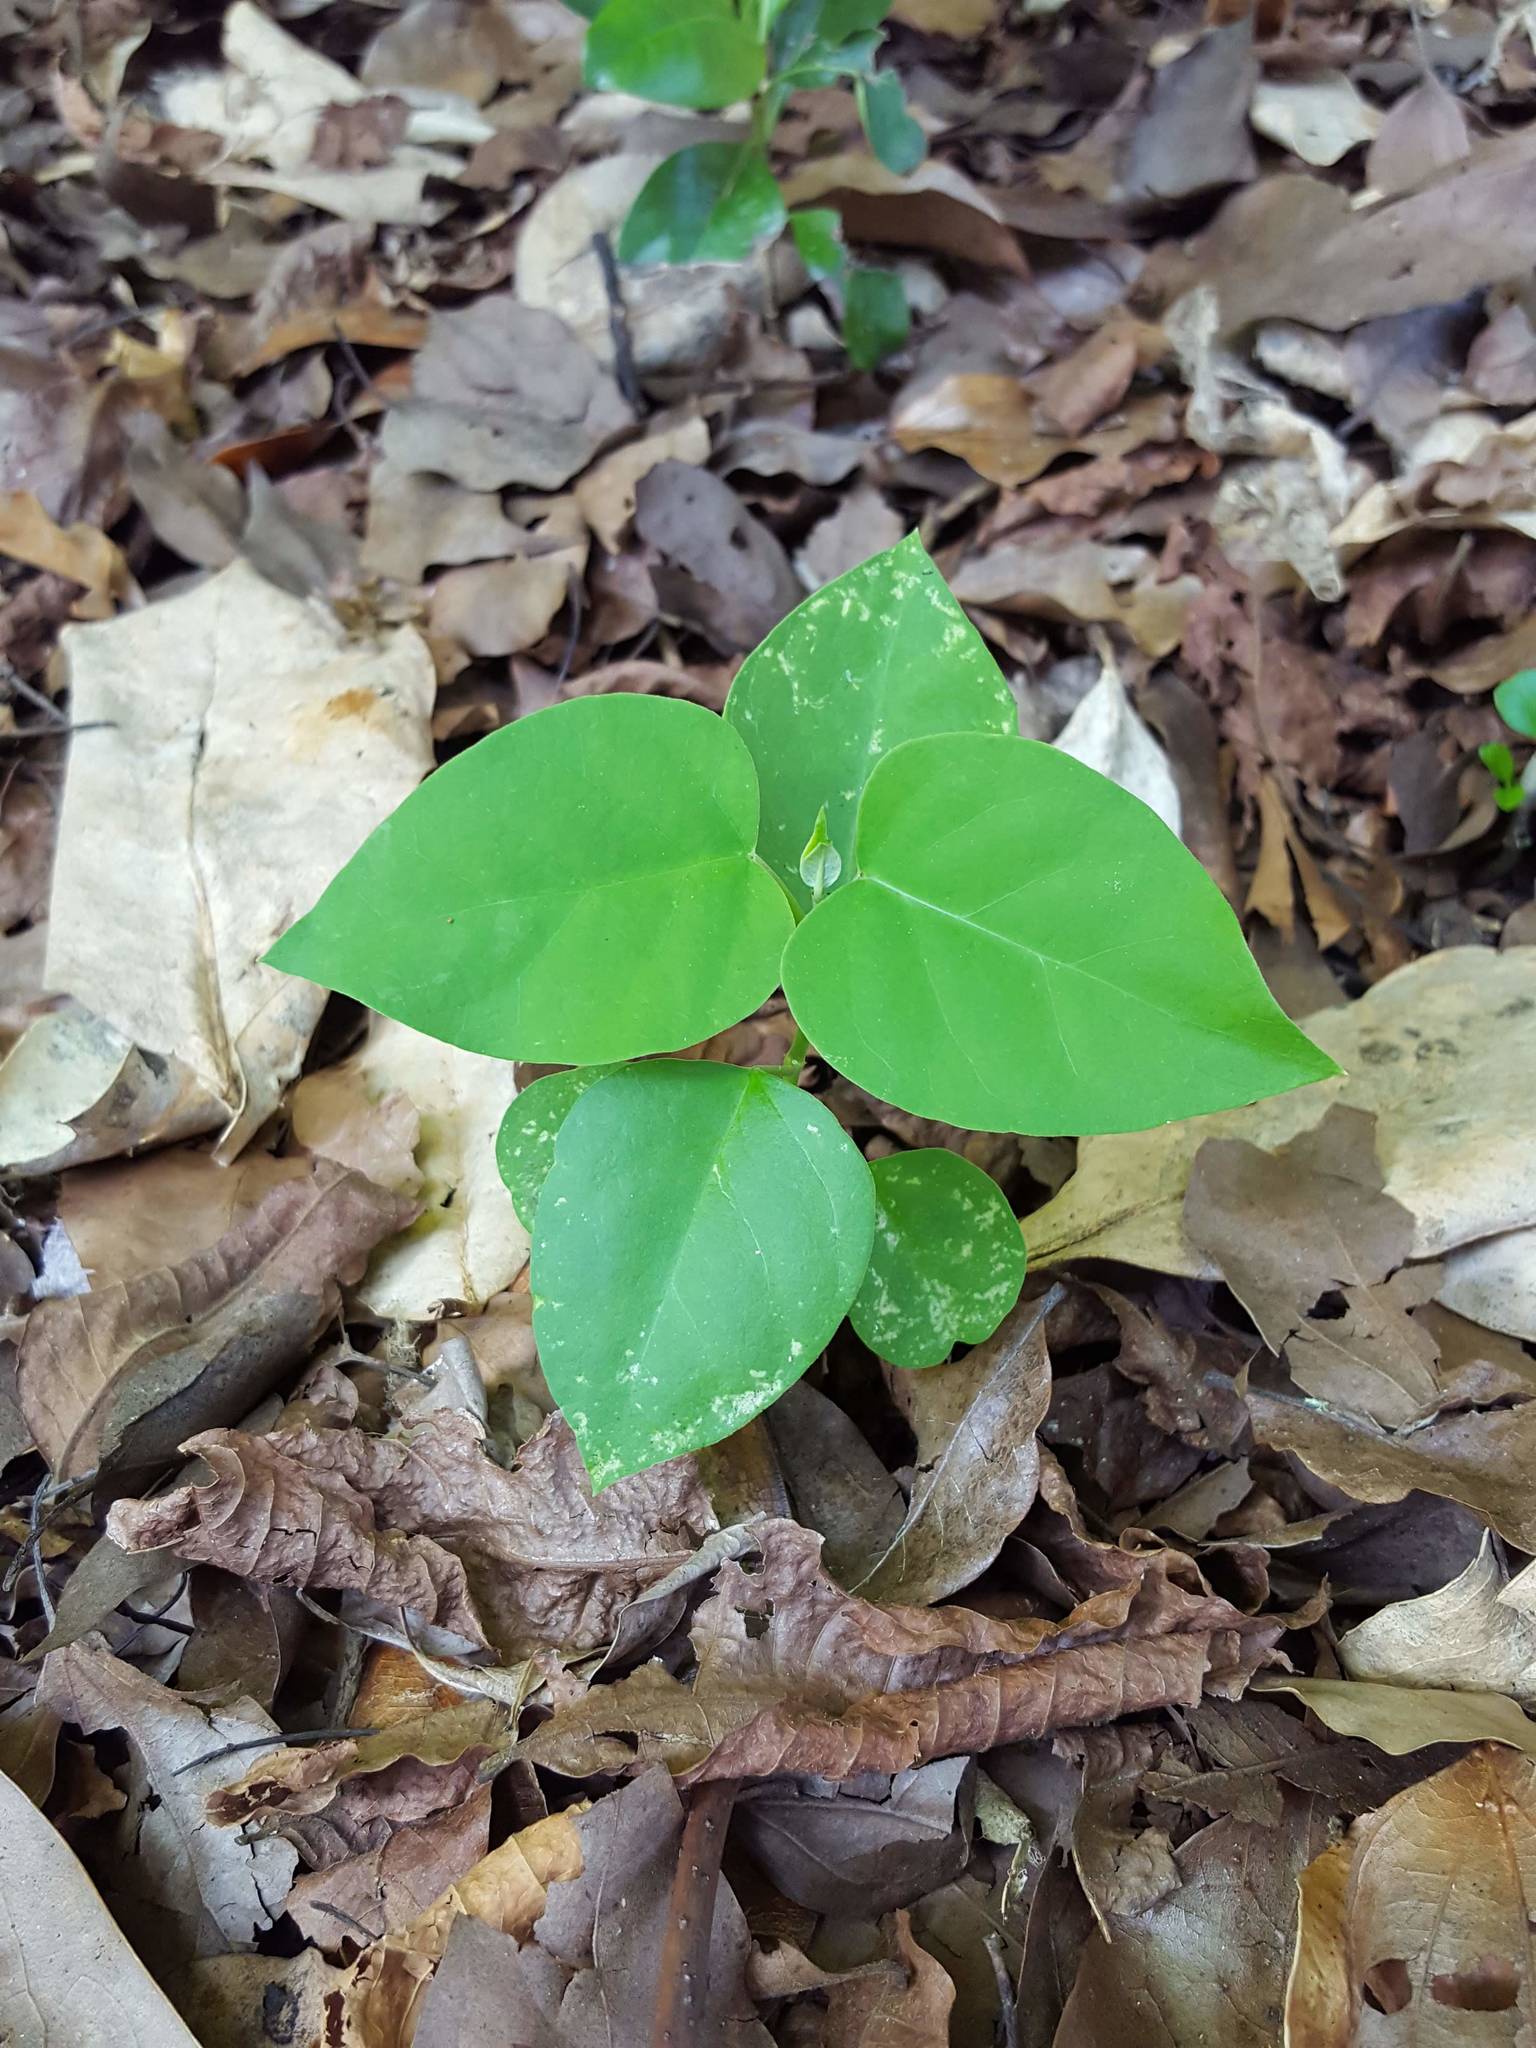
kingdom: Plantae
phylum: Tracheophyta
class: Magnoliopsida
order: Gentianales
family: Apocynaceae
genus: Araujia
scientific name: Araujia sericifera
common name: White bladderflower
